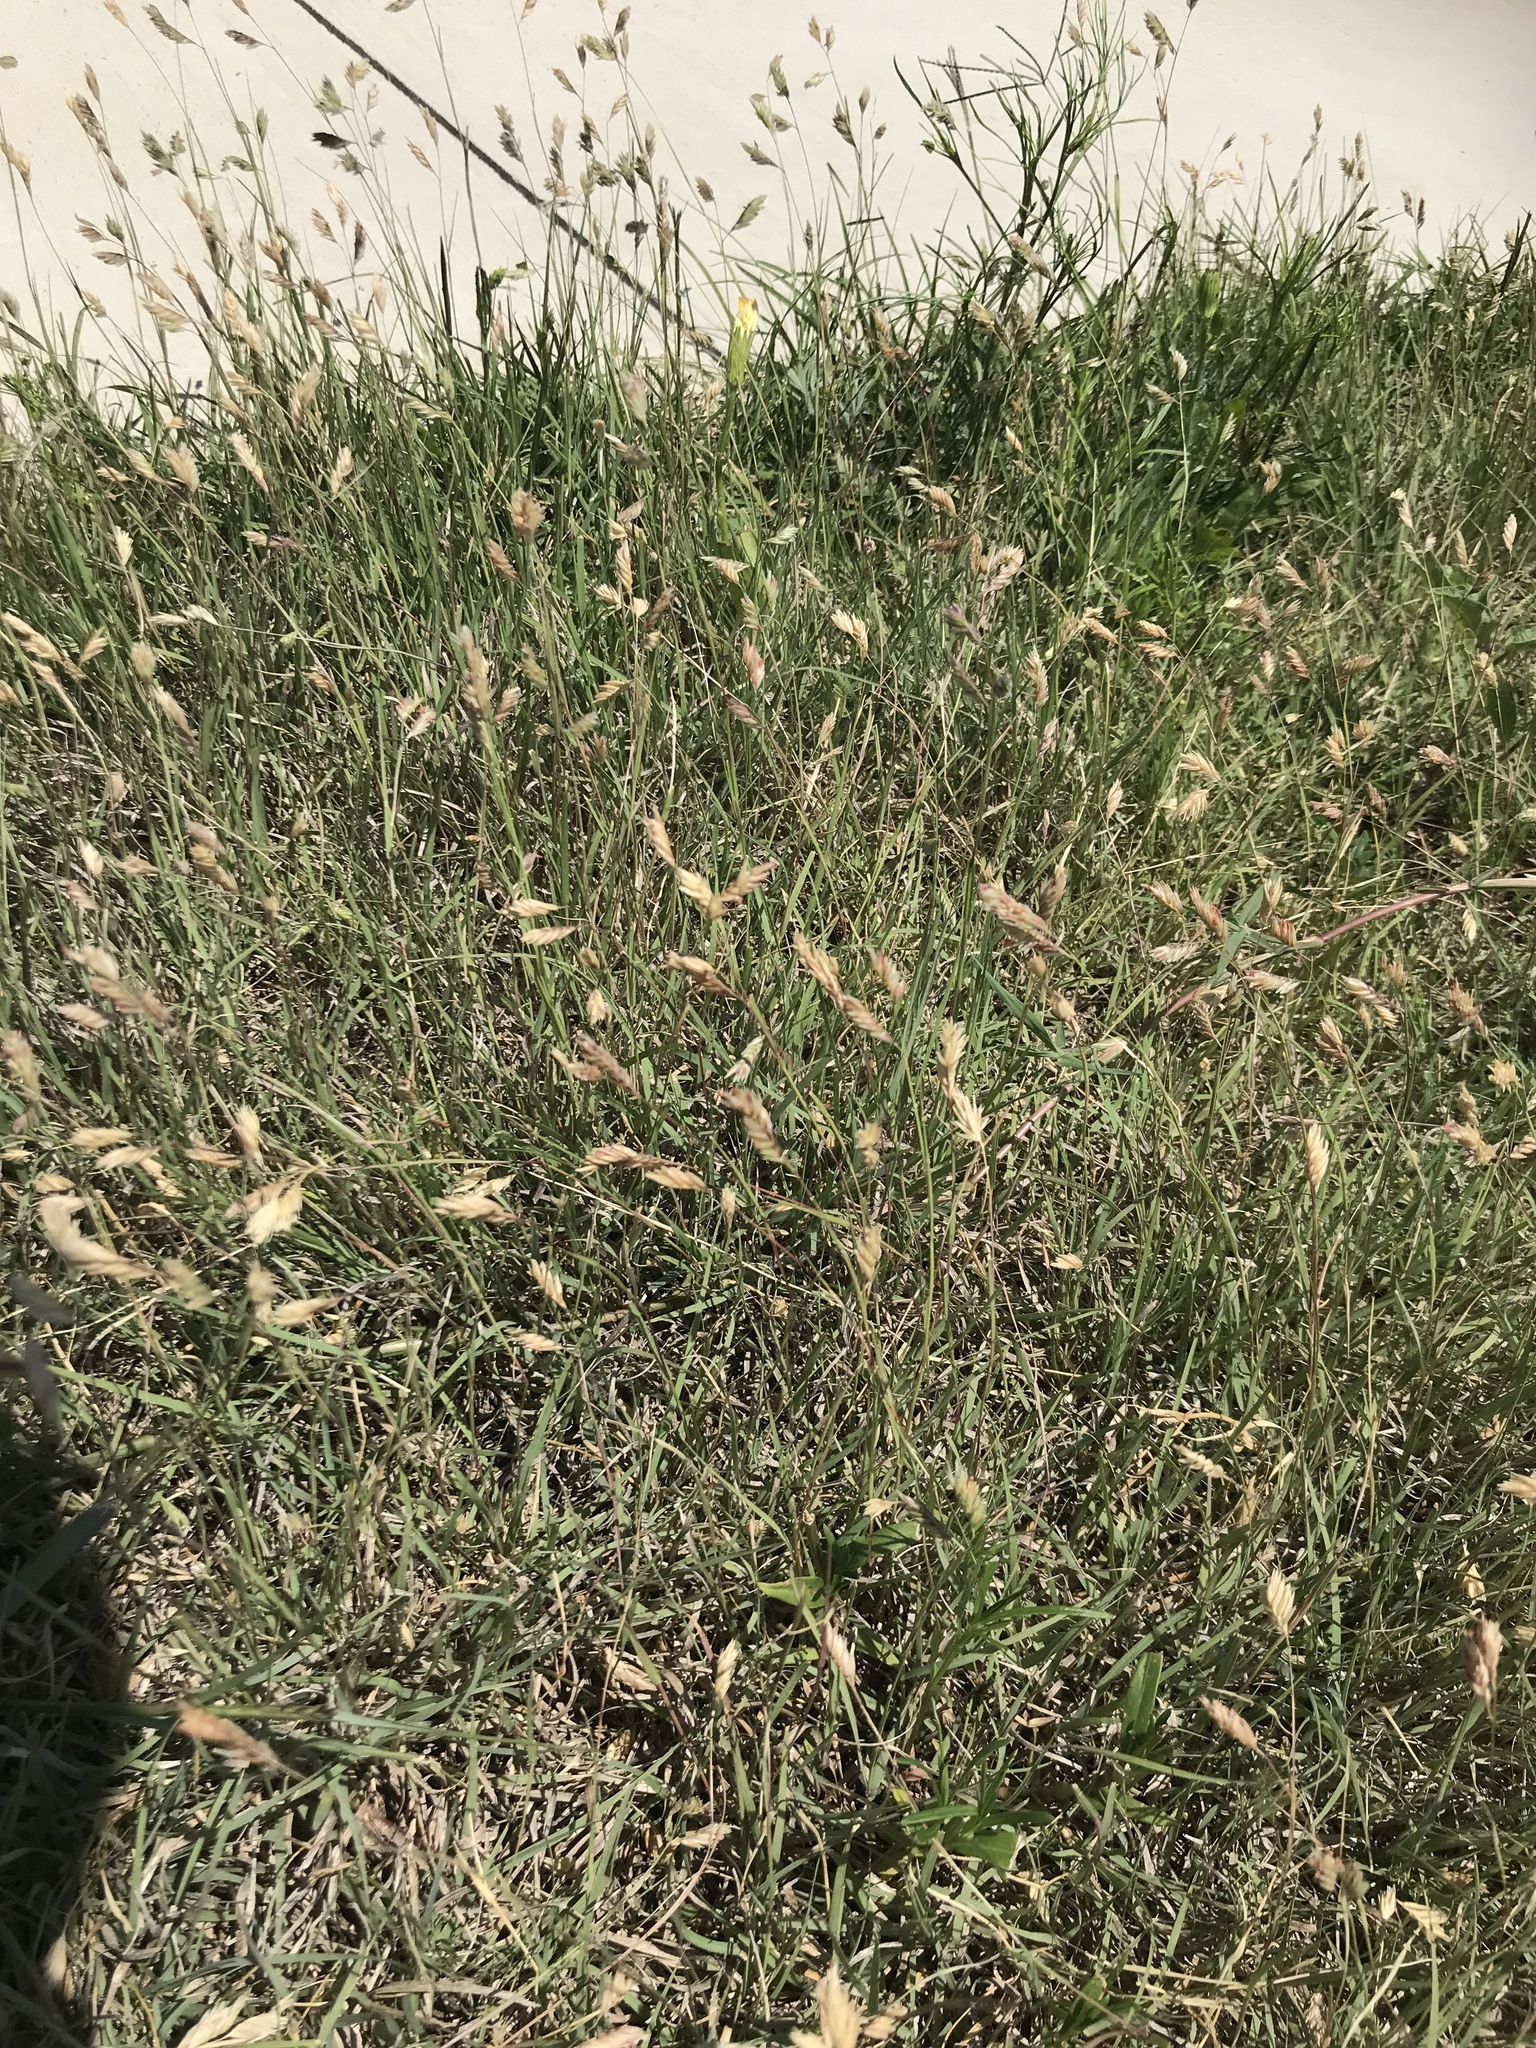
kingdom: Plantae
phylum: Tracheophyta
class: Liliopsida
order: Poales
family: Poaceae
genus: Bouteloua
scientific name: Bouteloua dactyloides
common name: Buffalo grass
